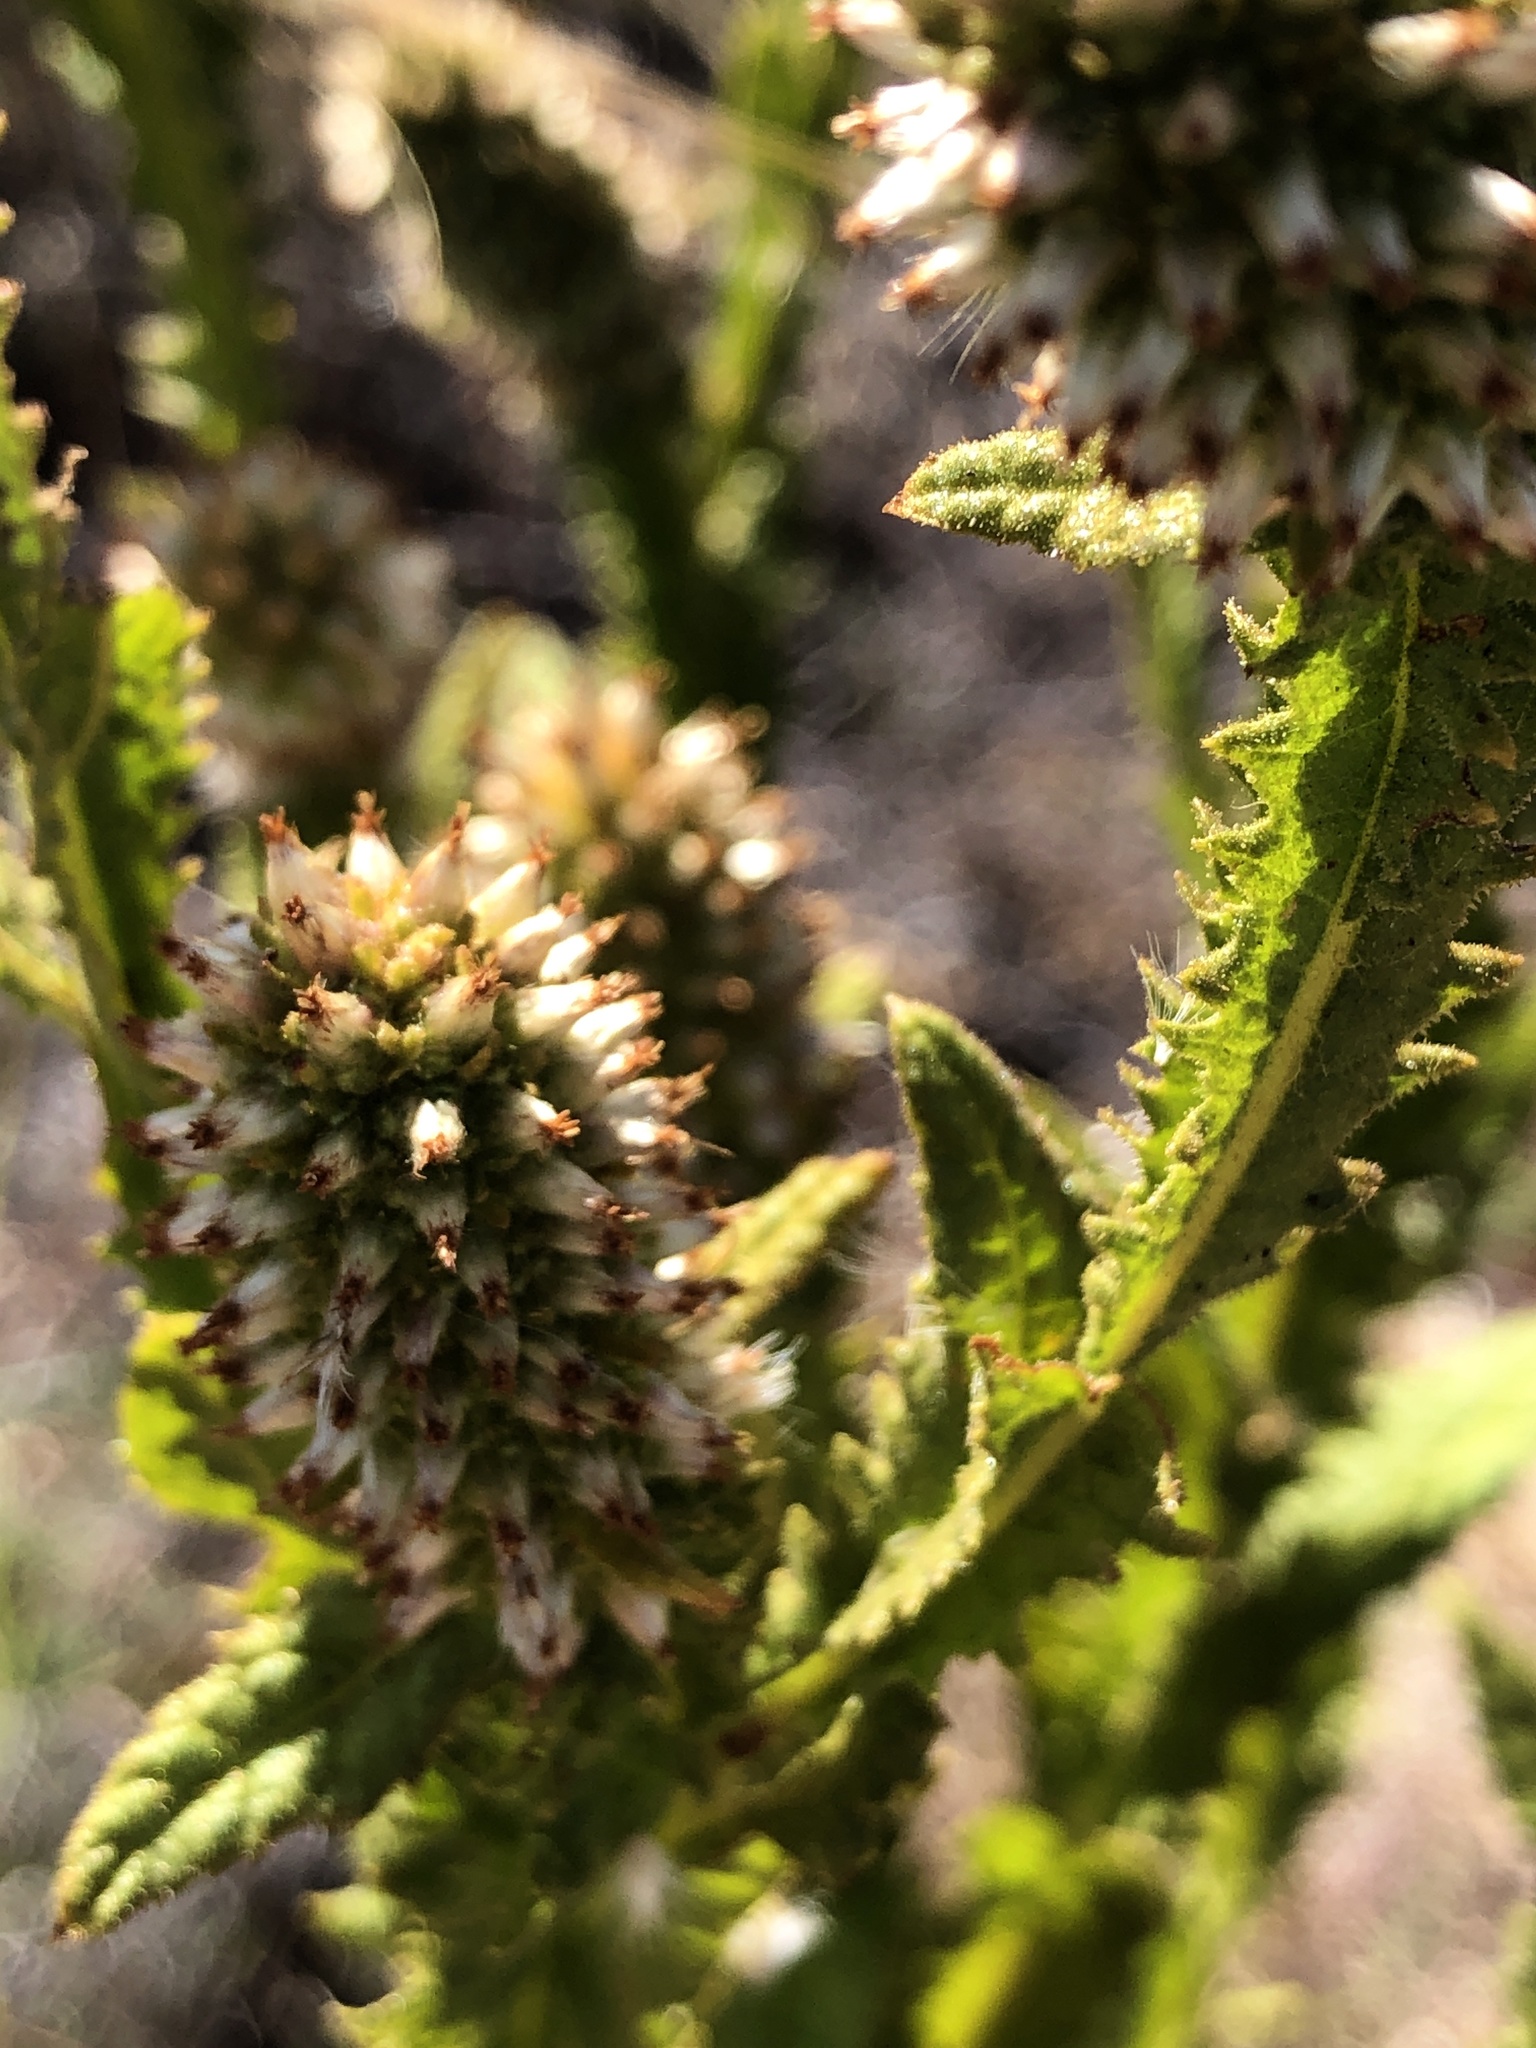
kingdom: Plantae
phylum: Tracheophyta
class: Magnoliopsida
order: Asterales
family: Asteraceae
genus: Pterocaulon
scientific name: Pterocaulon serrulatum
